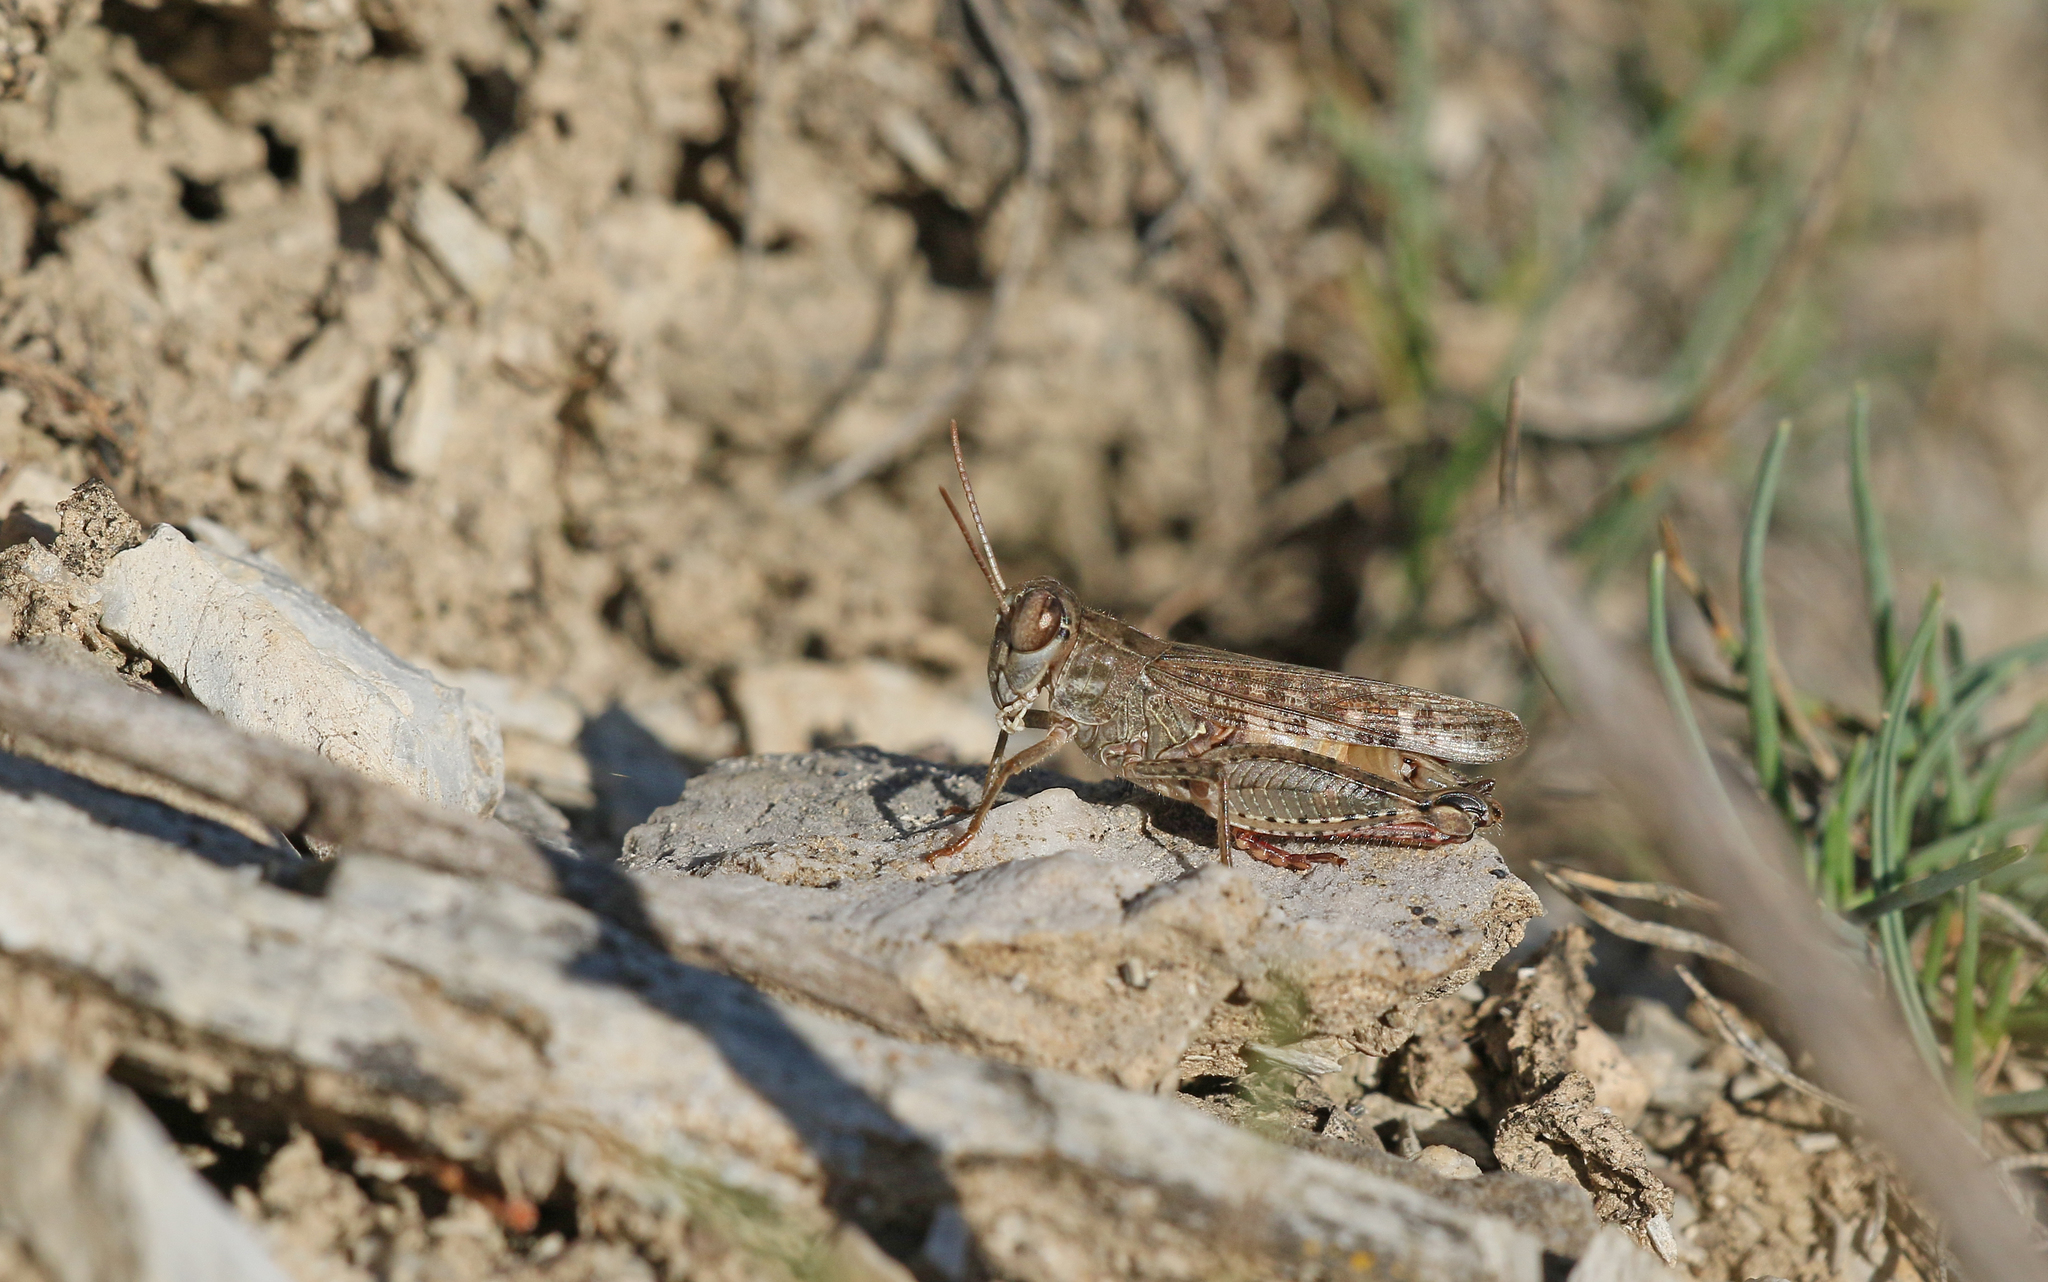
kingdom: Animalia
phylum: Arthropoda
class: Insecta
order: Orthoptera
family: Acrididae
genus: Calliptamus
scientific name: Calliptamus italicus
